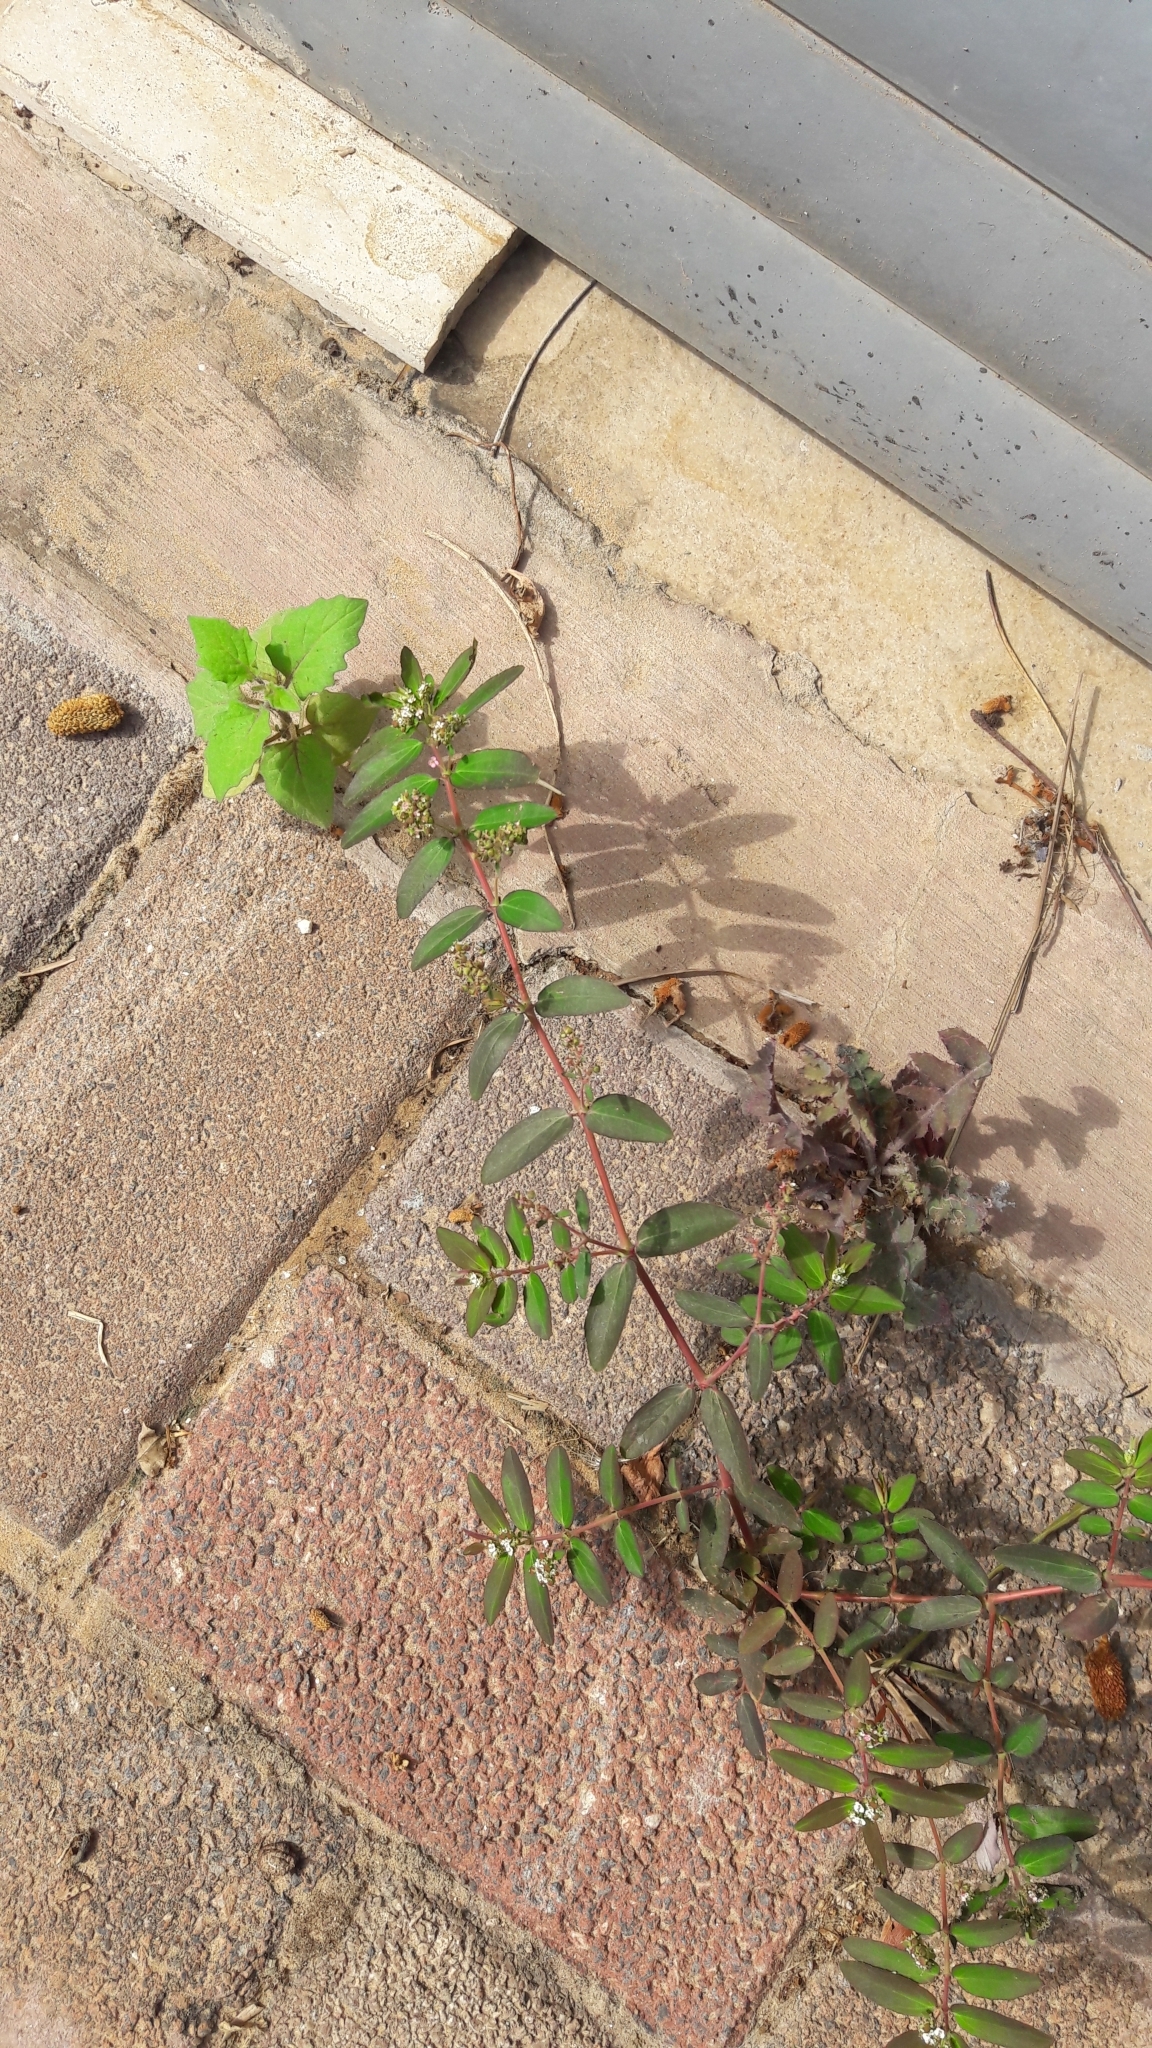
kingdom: Plantae
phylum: Tracheophyta
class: Magnoliopsida
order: Malpighiales
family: Euphorbiaceae
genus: Euphorbia
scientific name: Euphorbia hypericifolia
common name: Graceful sandmat
